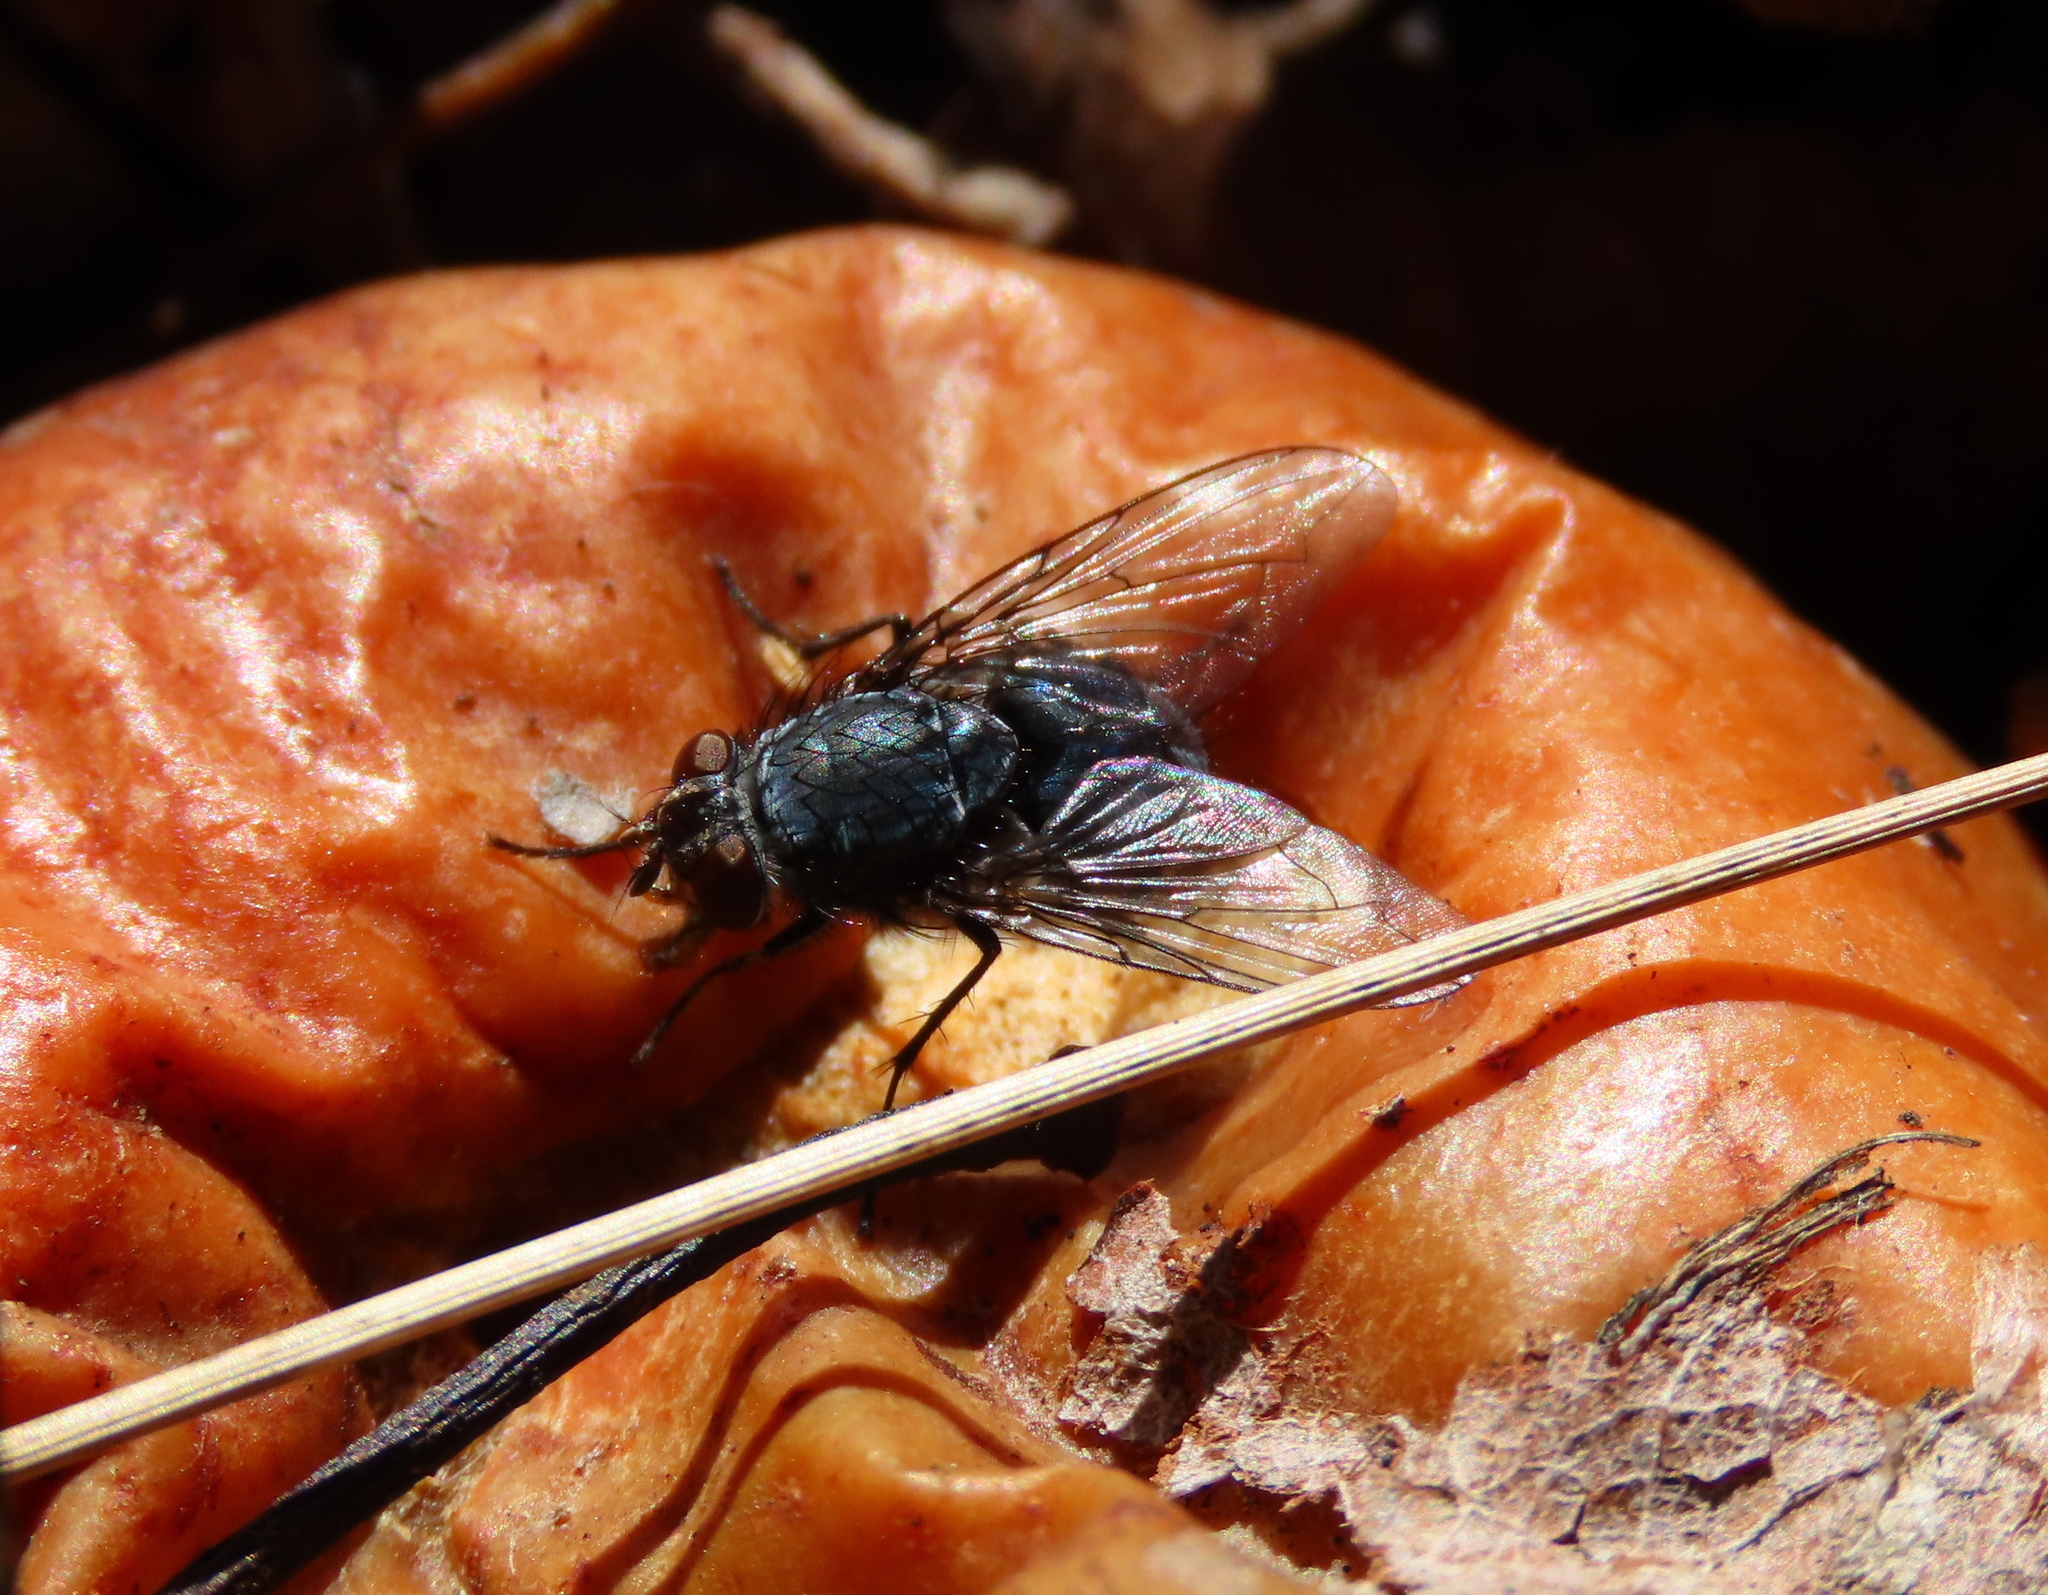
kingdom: Animalia
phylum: Arthropoda
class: Insecta
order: Diptera
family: Calliphoridae
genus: Calliphora
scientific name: Calliphora vicina
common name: Common blow flie
